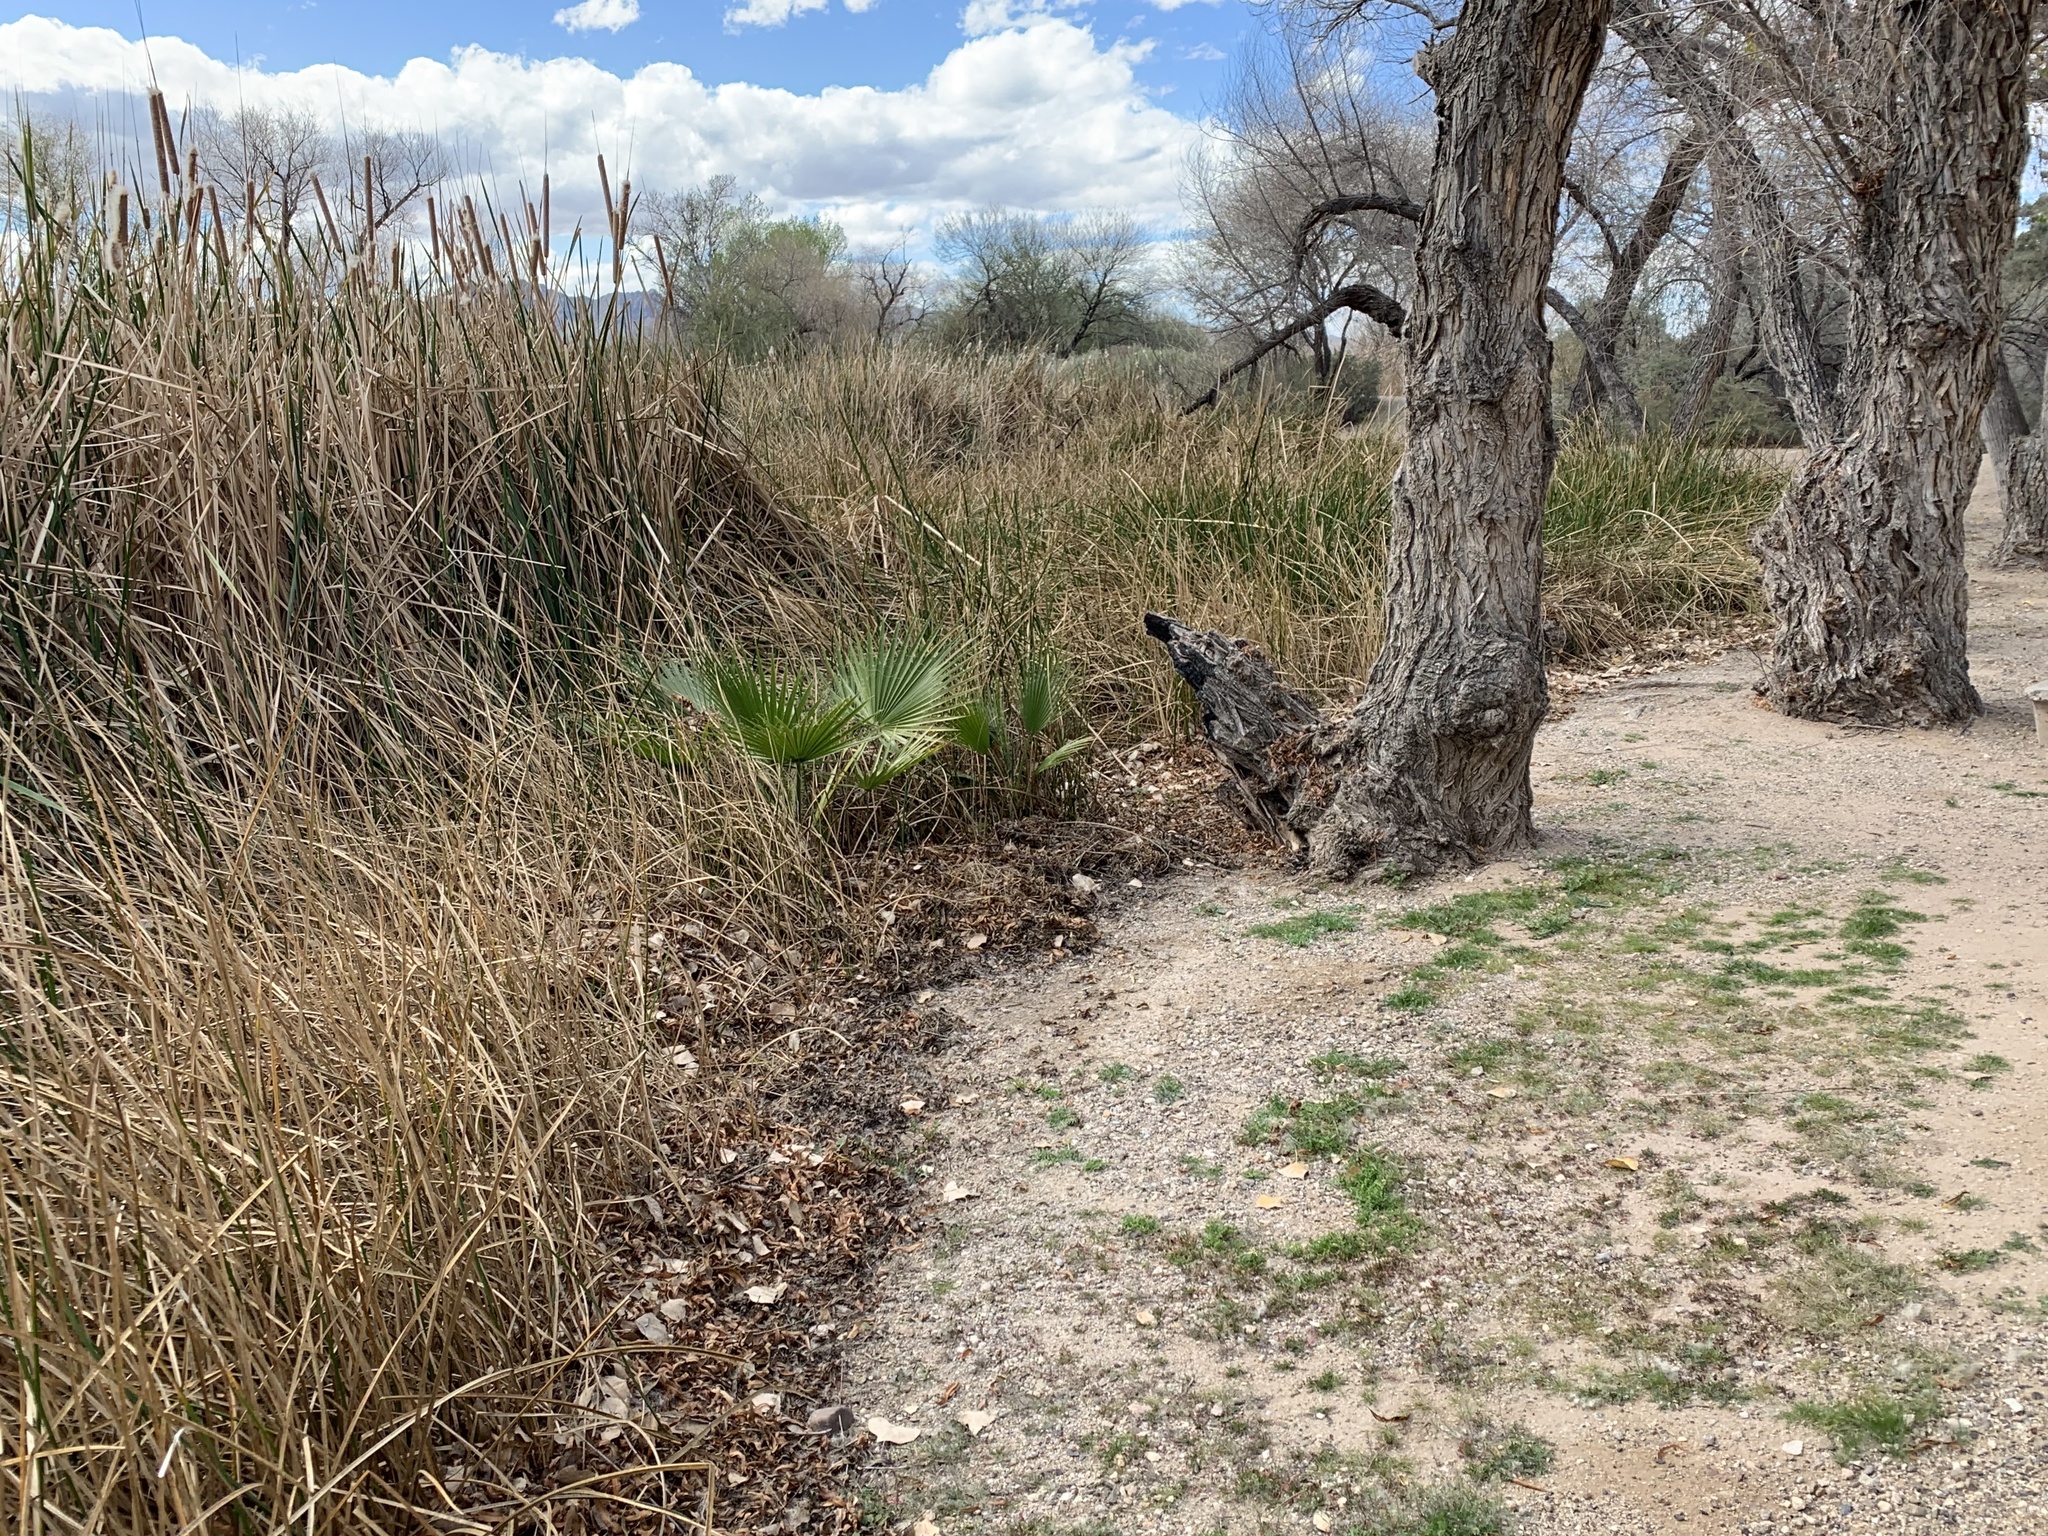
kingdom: Plantae
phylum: Tracheophyta
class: Liliopsida
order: Arecales
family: Arecaceae
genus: Washingtonia
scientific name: Washingtonia filifera
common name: California fan palm
